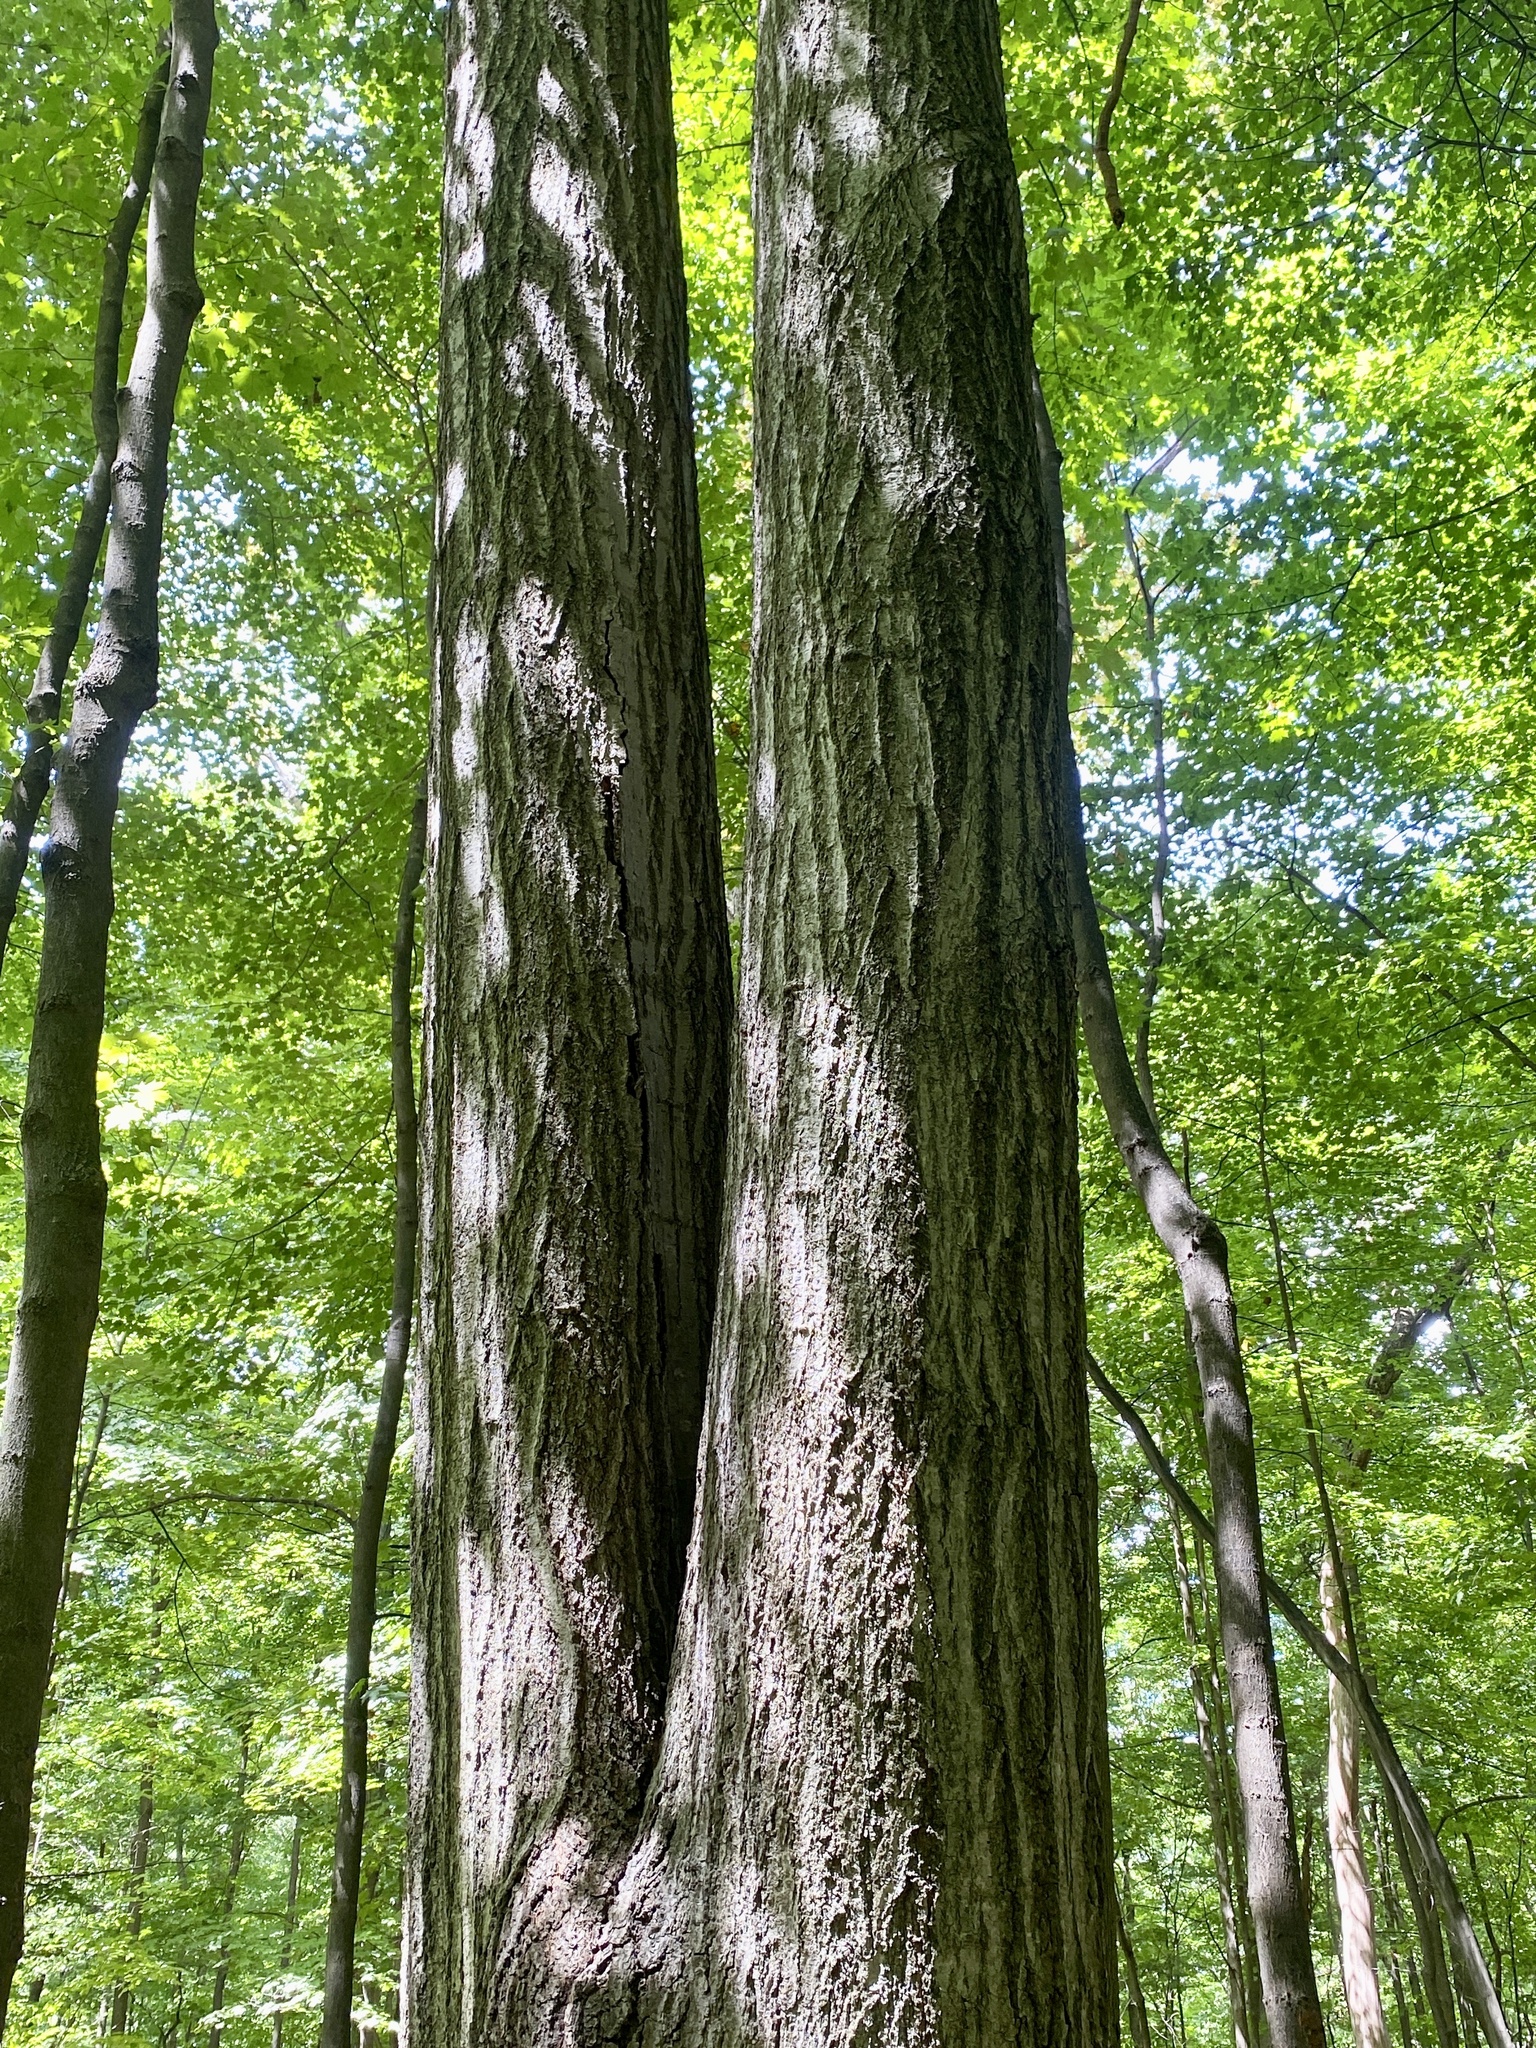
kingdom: Plantae
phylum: Tracheophyta
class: Magnoliopsida
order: Fagales
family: Fagaceae
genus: Quercus
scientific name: Quercus rubra
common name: Red oak
